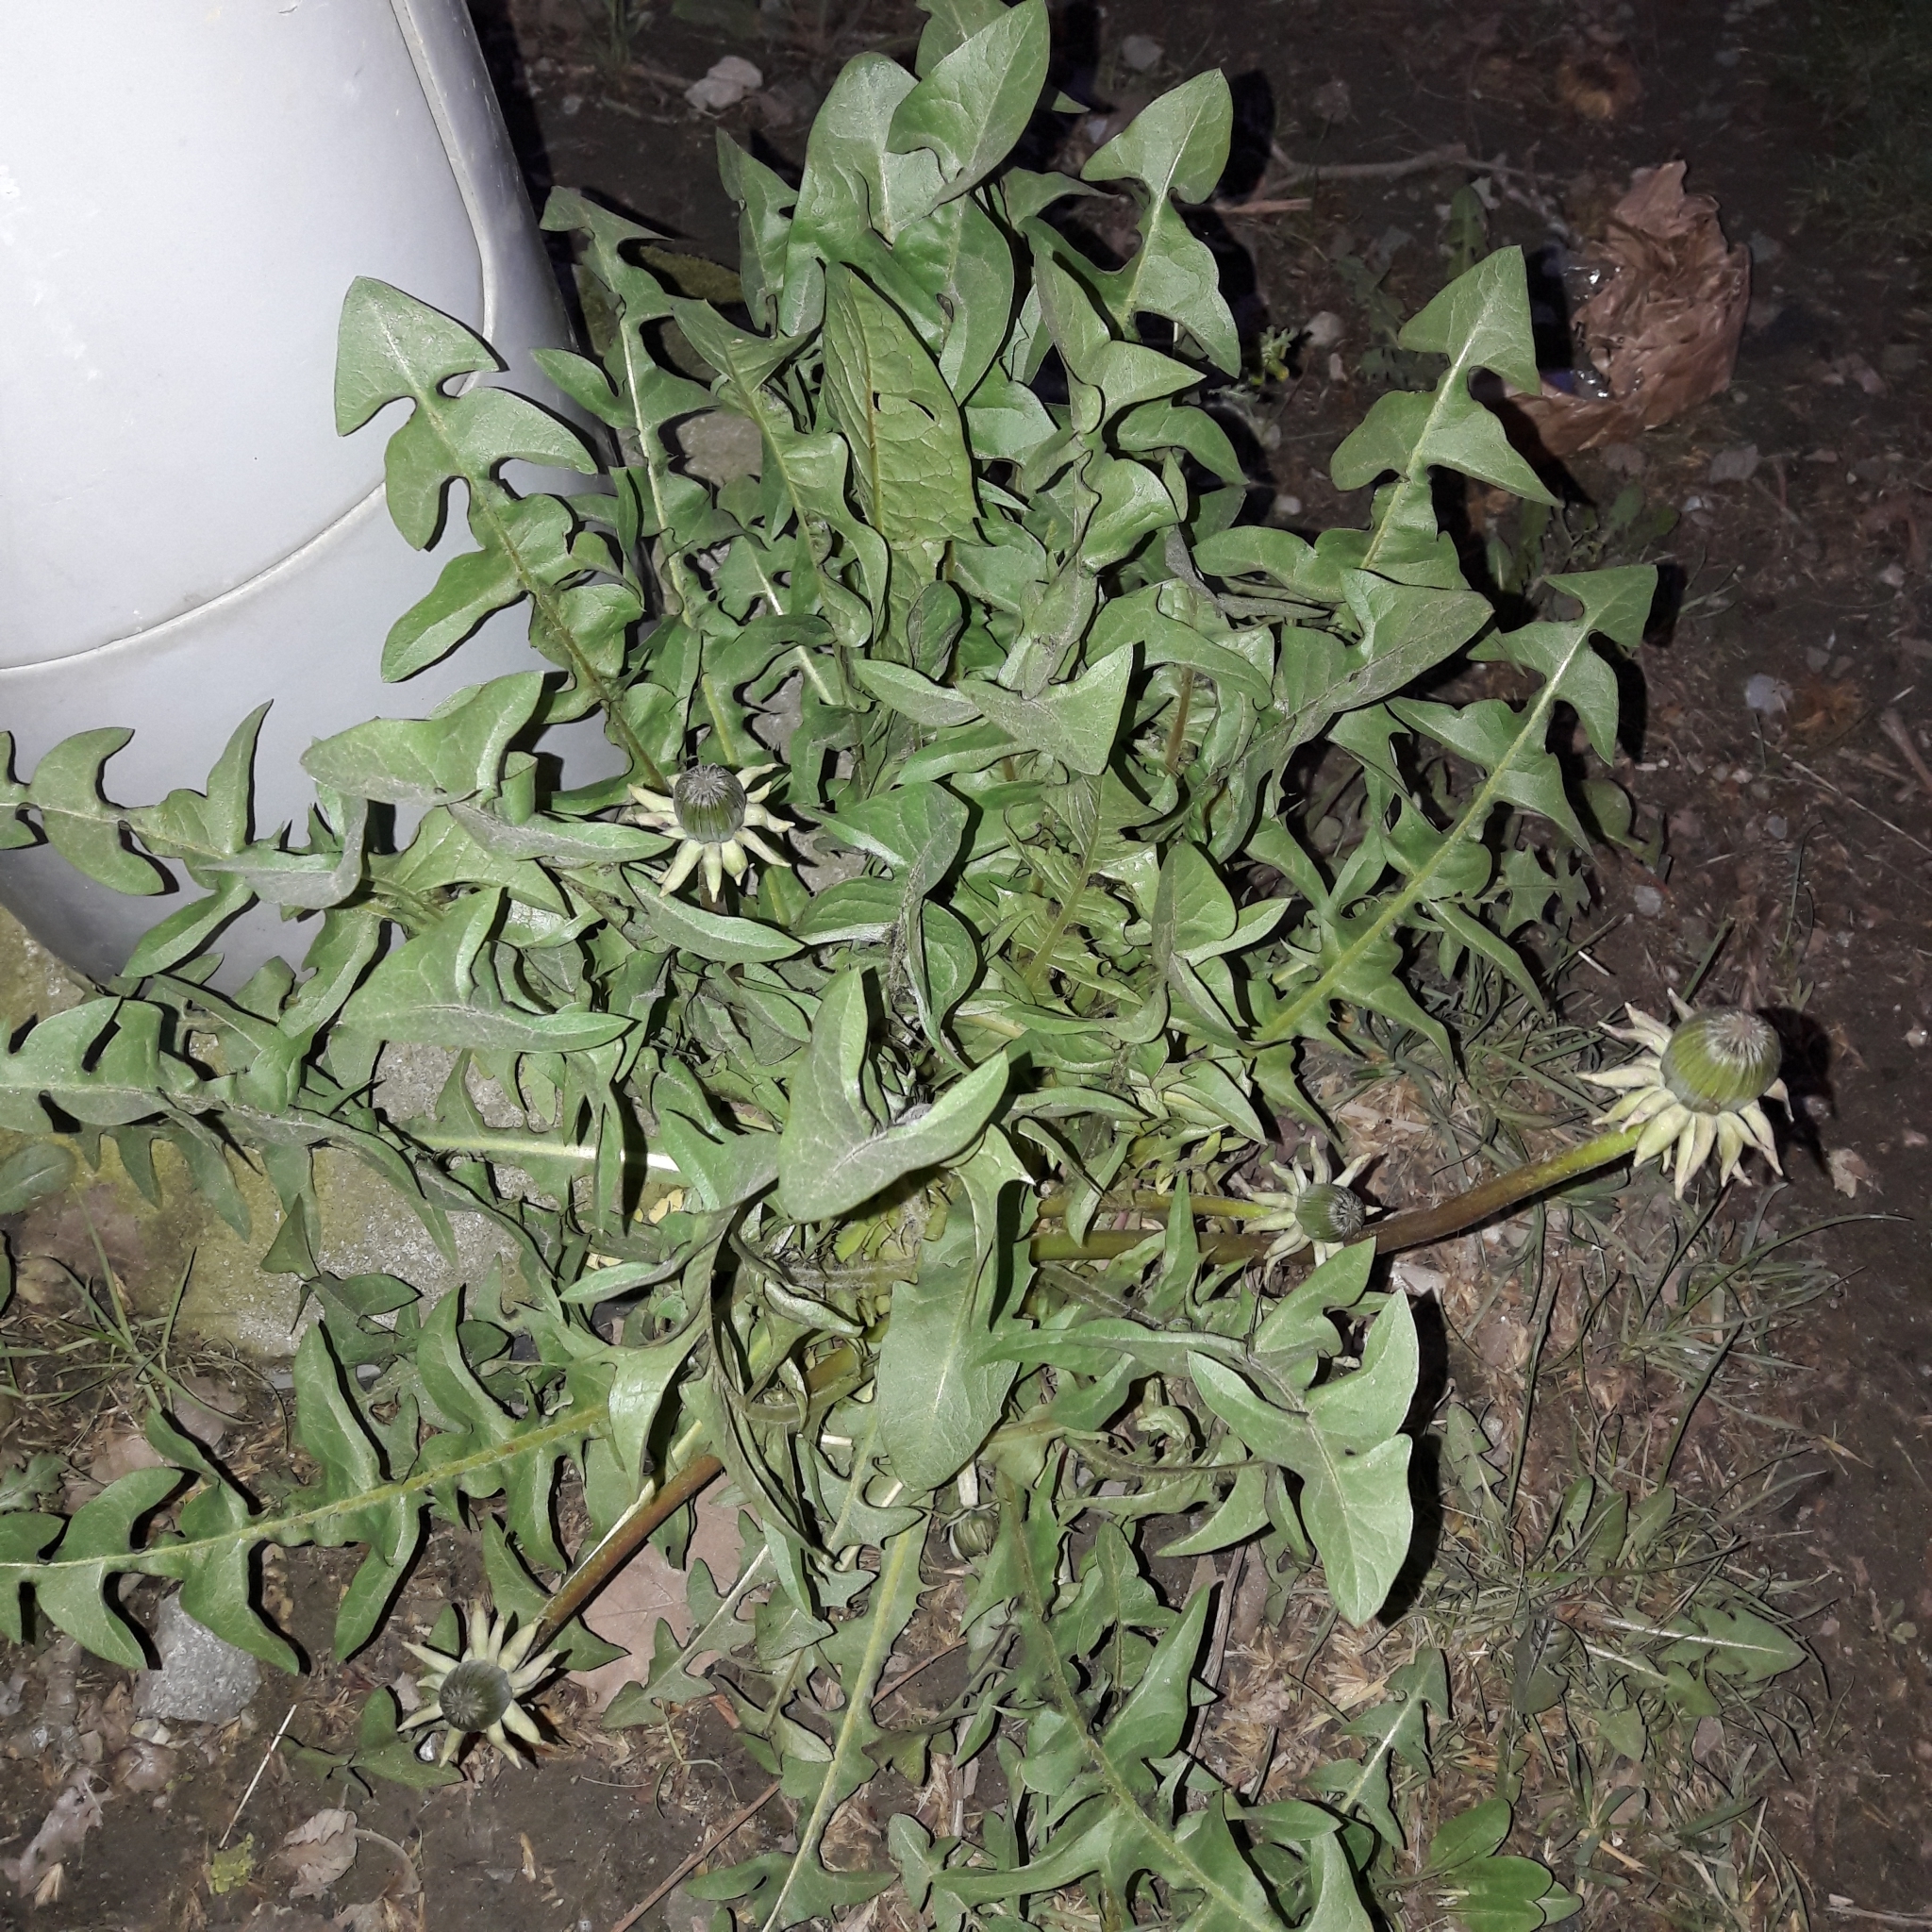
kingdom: Plantae
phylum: Tracheophyta
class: Magnoliopsida
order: Asterales
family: Asteraceae
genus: Taraxacum
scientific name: Taraxacum officinale
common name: Common dandelion
